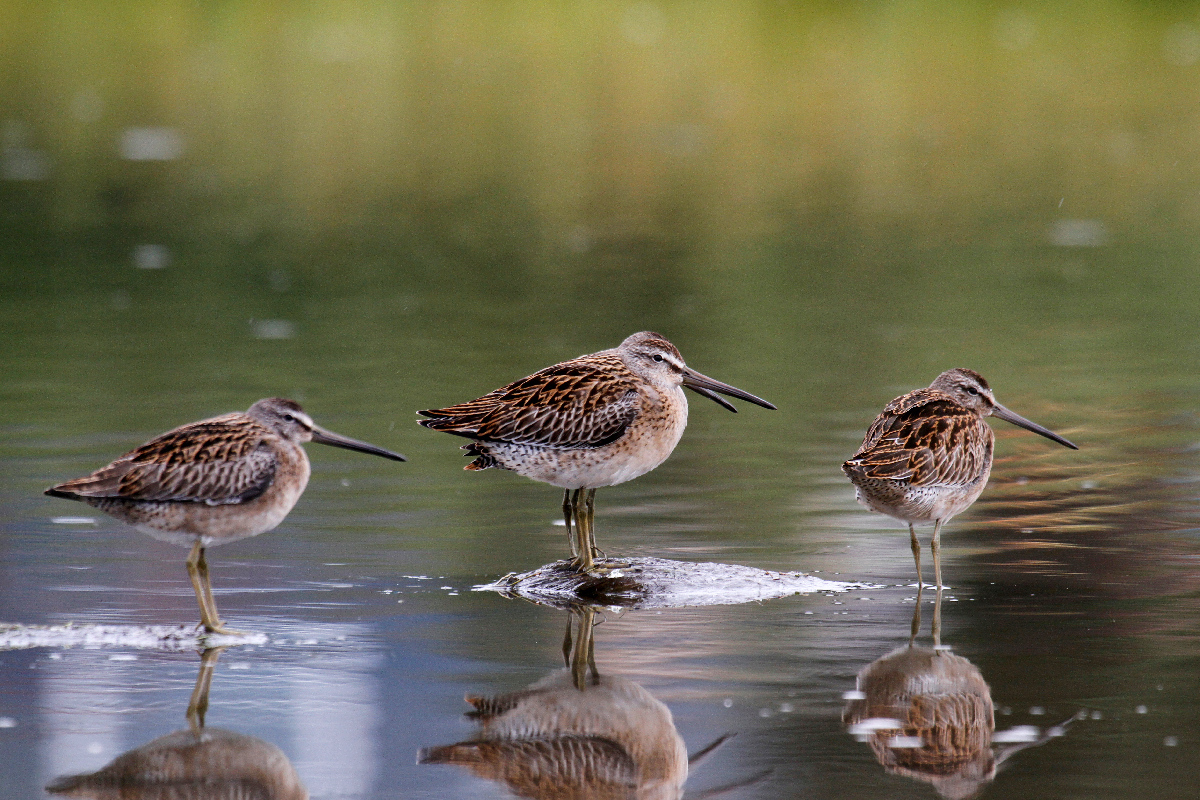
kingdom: Animalia
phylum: Chordata
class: Aves
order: Charadriiformes
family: Scolopacidae
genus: Limnodromus
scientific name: Limnodromus griseus
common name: Short-billed dowitcher
